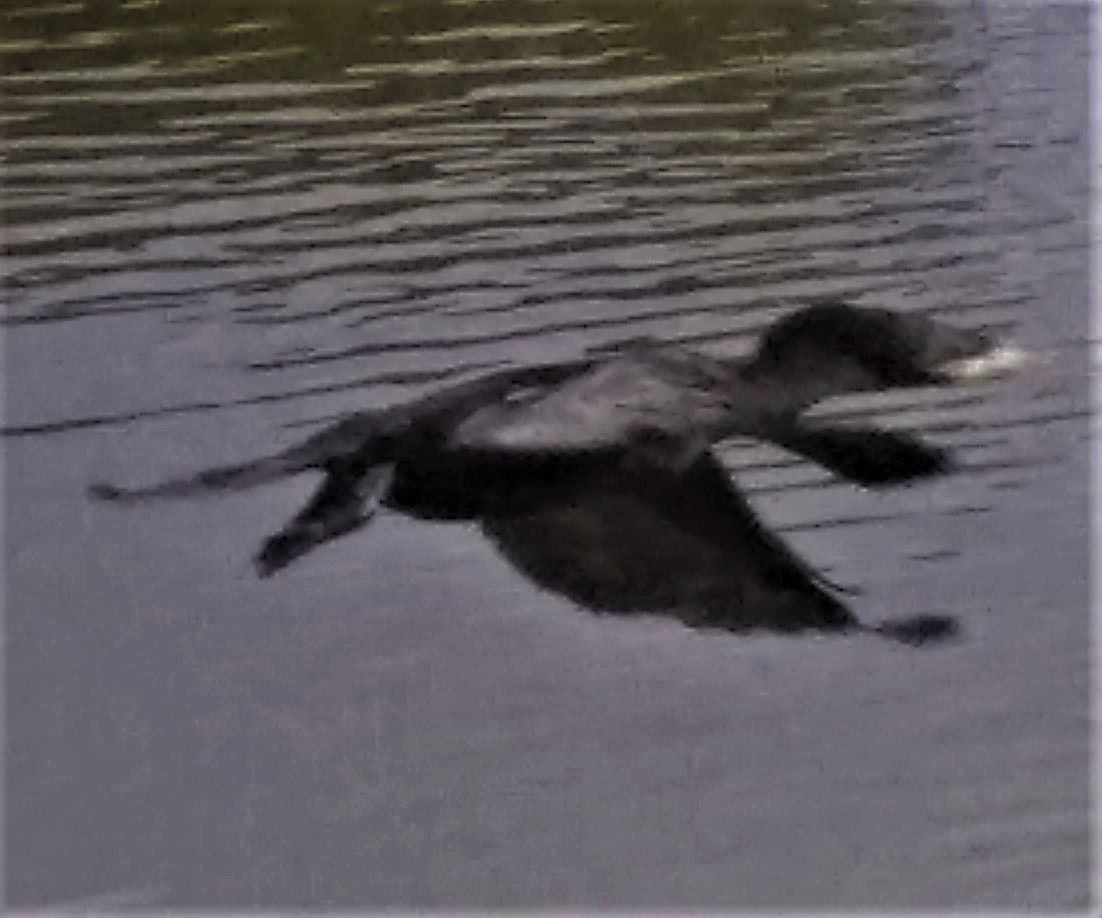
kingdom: Animalia
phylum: Chordata
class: Aves
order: Suliformes
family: Phalacrocoracidae
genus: Phalacrocorax
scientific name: Phalacrocorax brasilianus
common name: Neotropic cormorant
